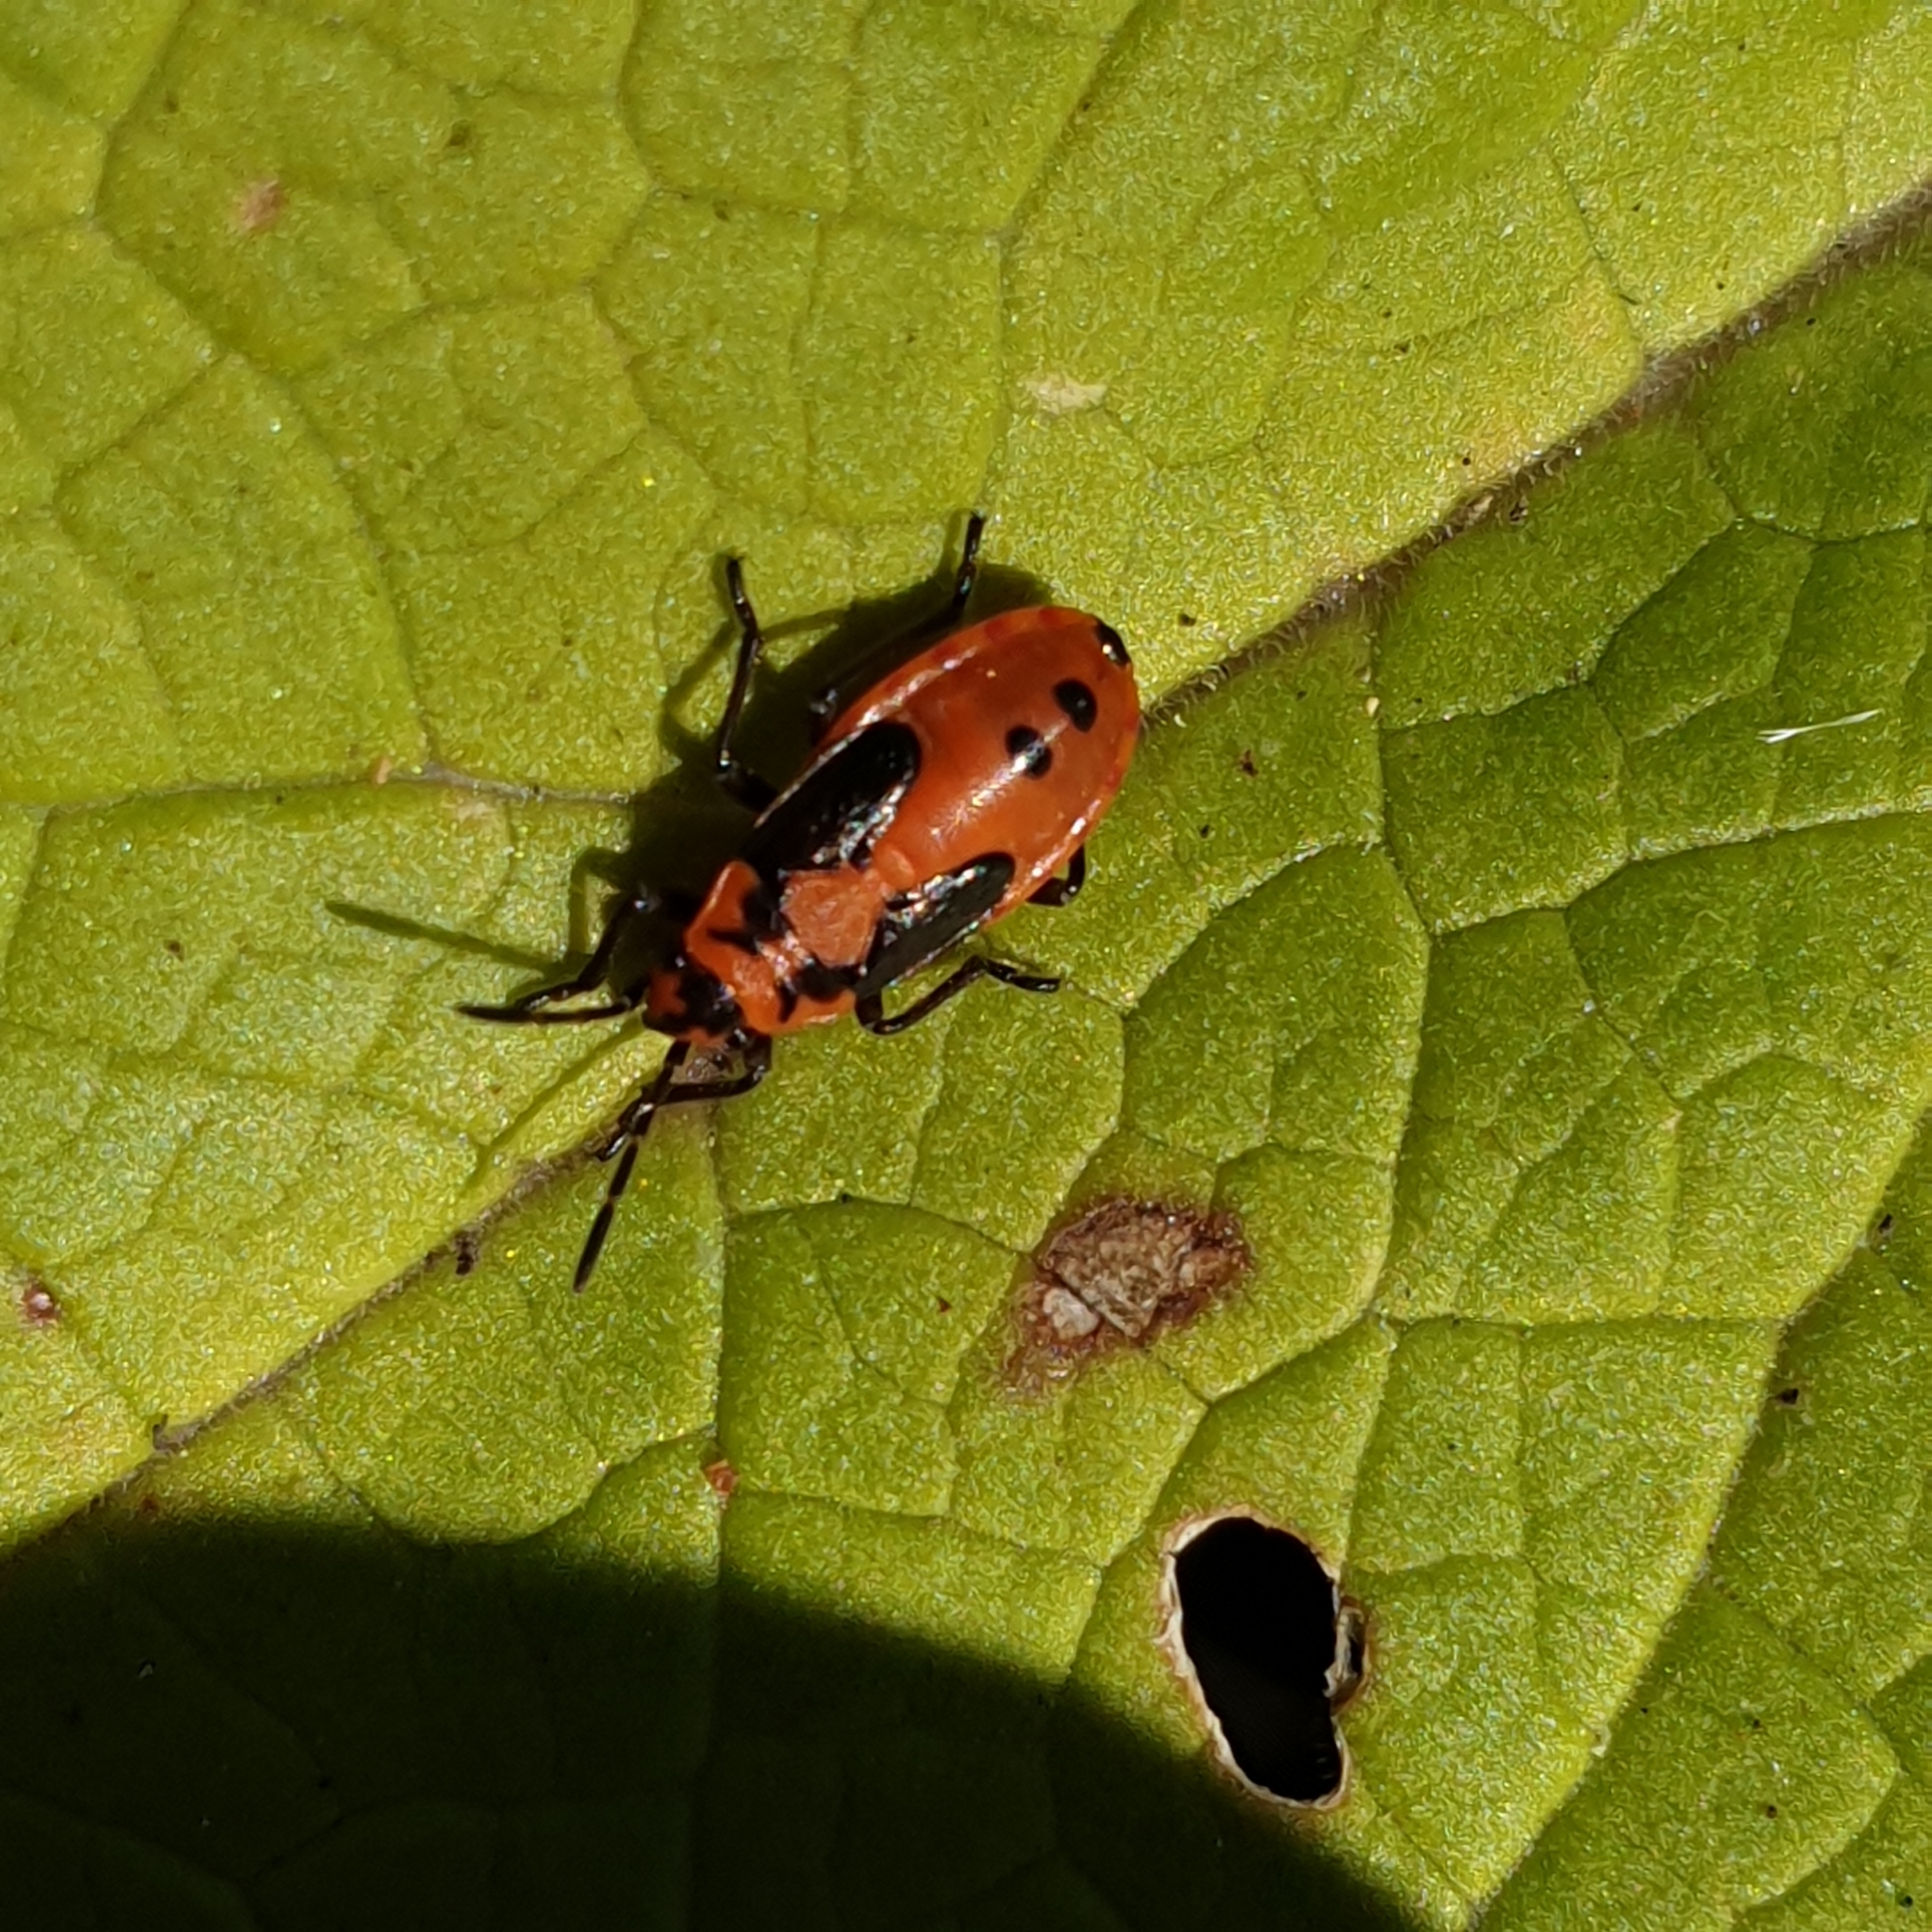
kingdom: Animalia
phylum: Arthropoda
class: Insecta
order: Hemiptera
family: Lygaeidae
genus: Lygaeus
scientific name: Lygaeus equestris
